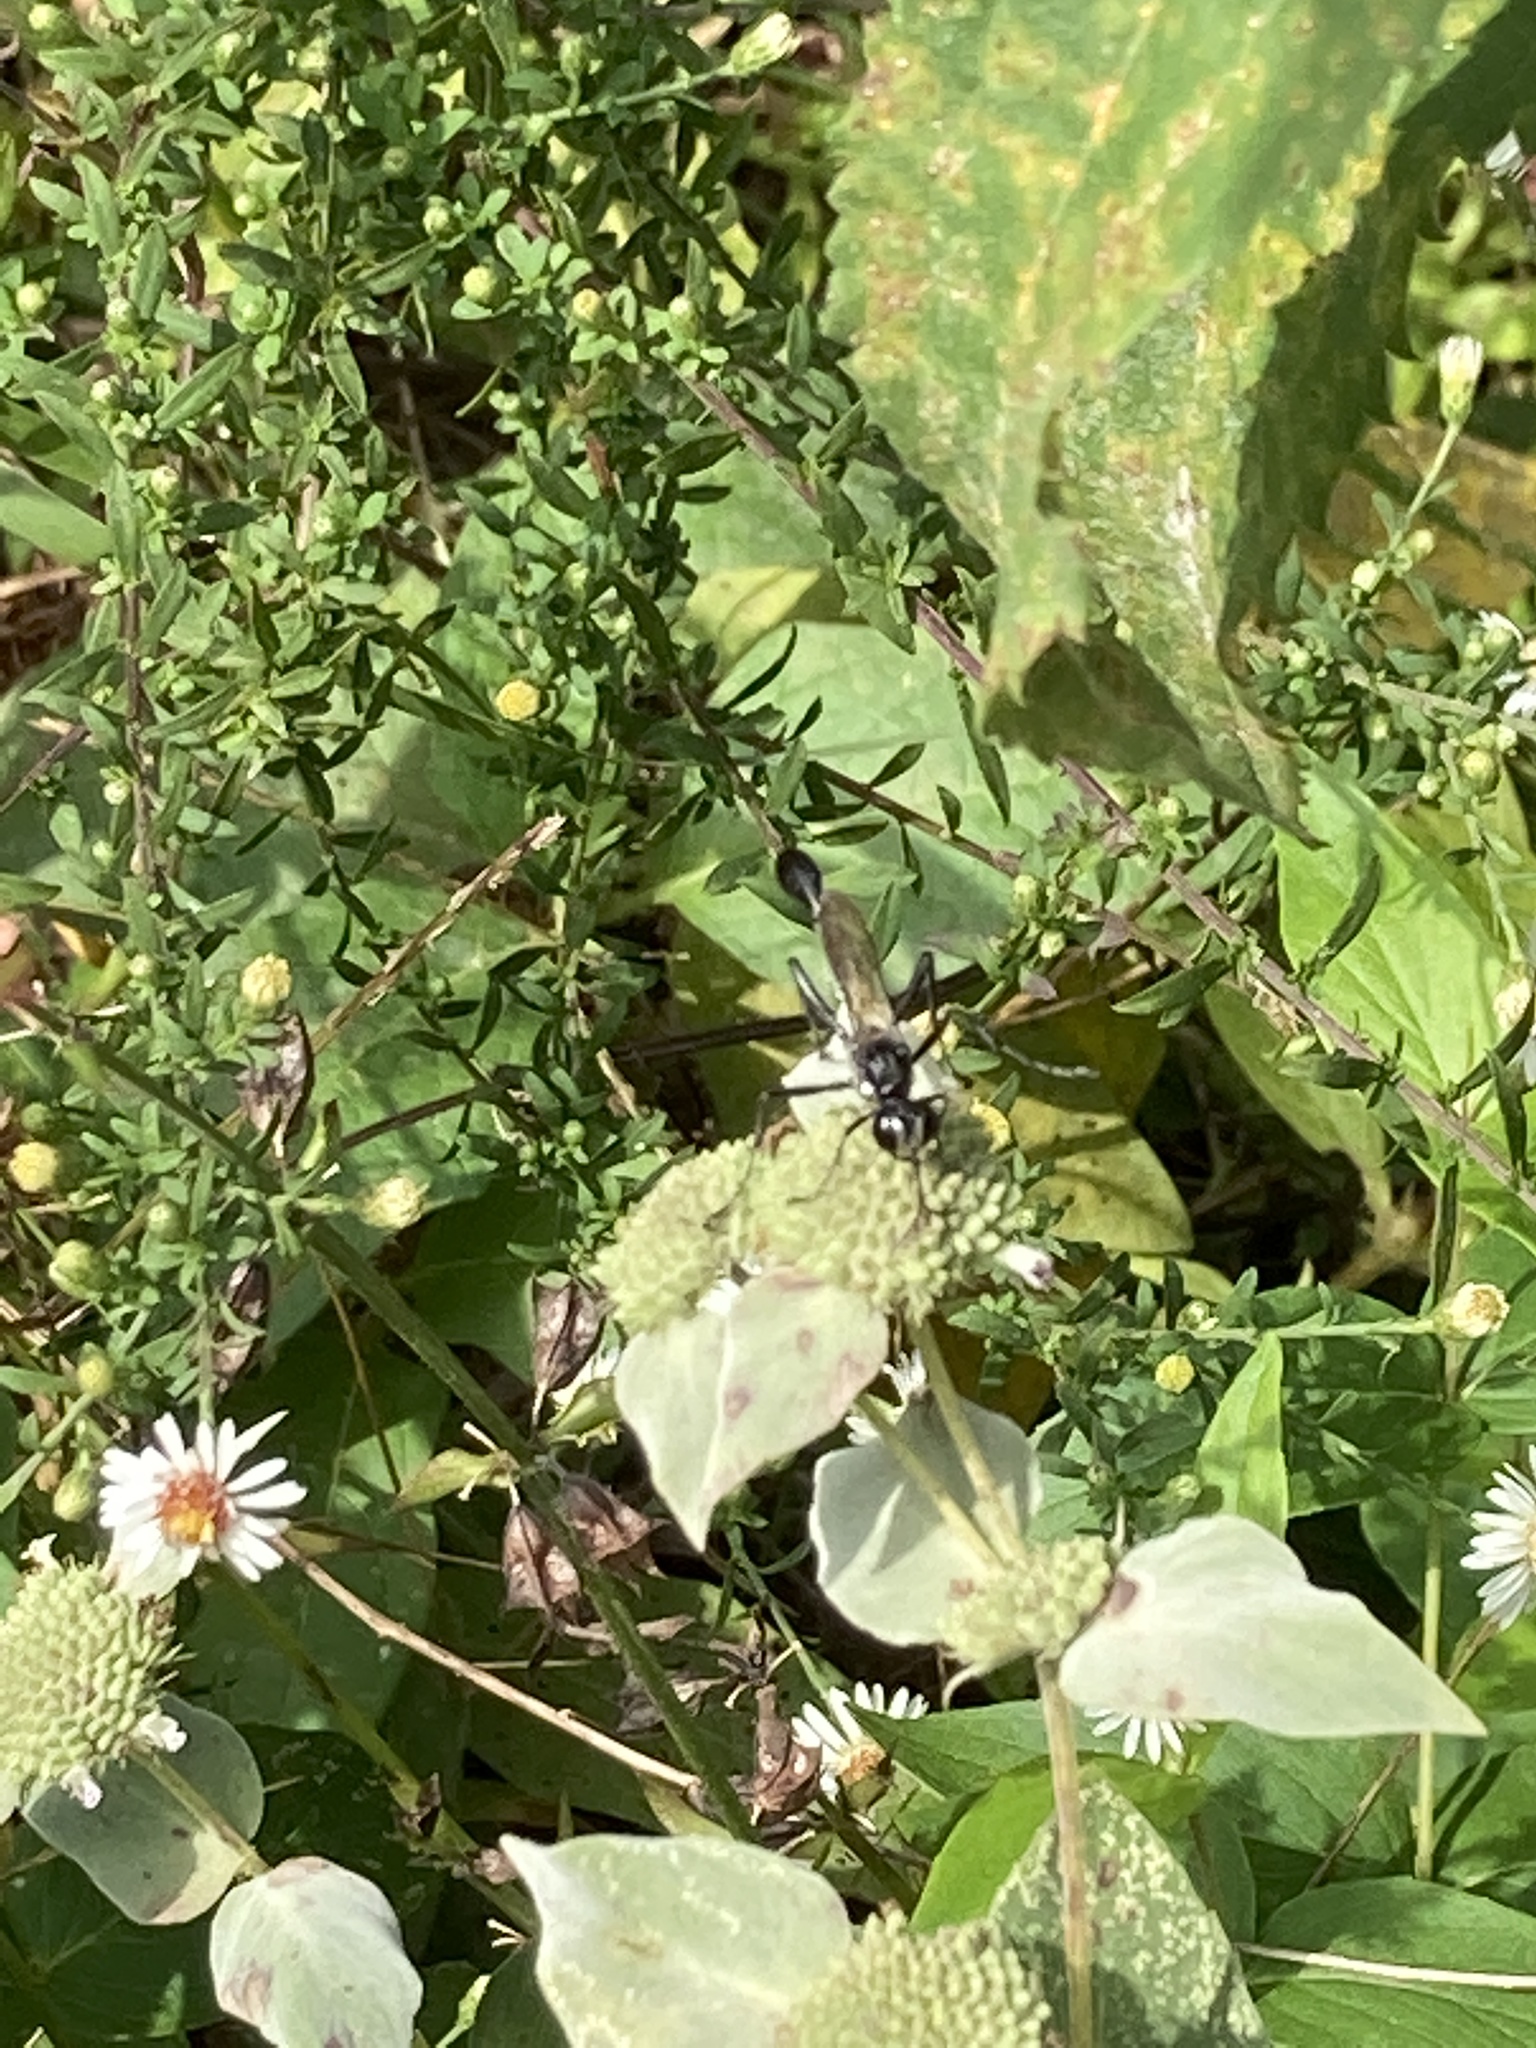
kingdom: Animalia
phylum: Arthropoda
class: Insecta
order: Hymenoptera
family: Sphecidae
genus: Eremnophila
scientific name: Eremnophila aureonotata
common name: Gold-marked thread-waisted wasp
